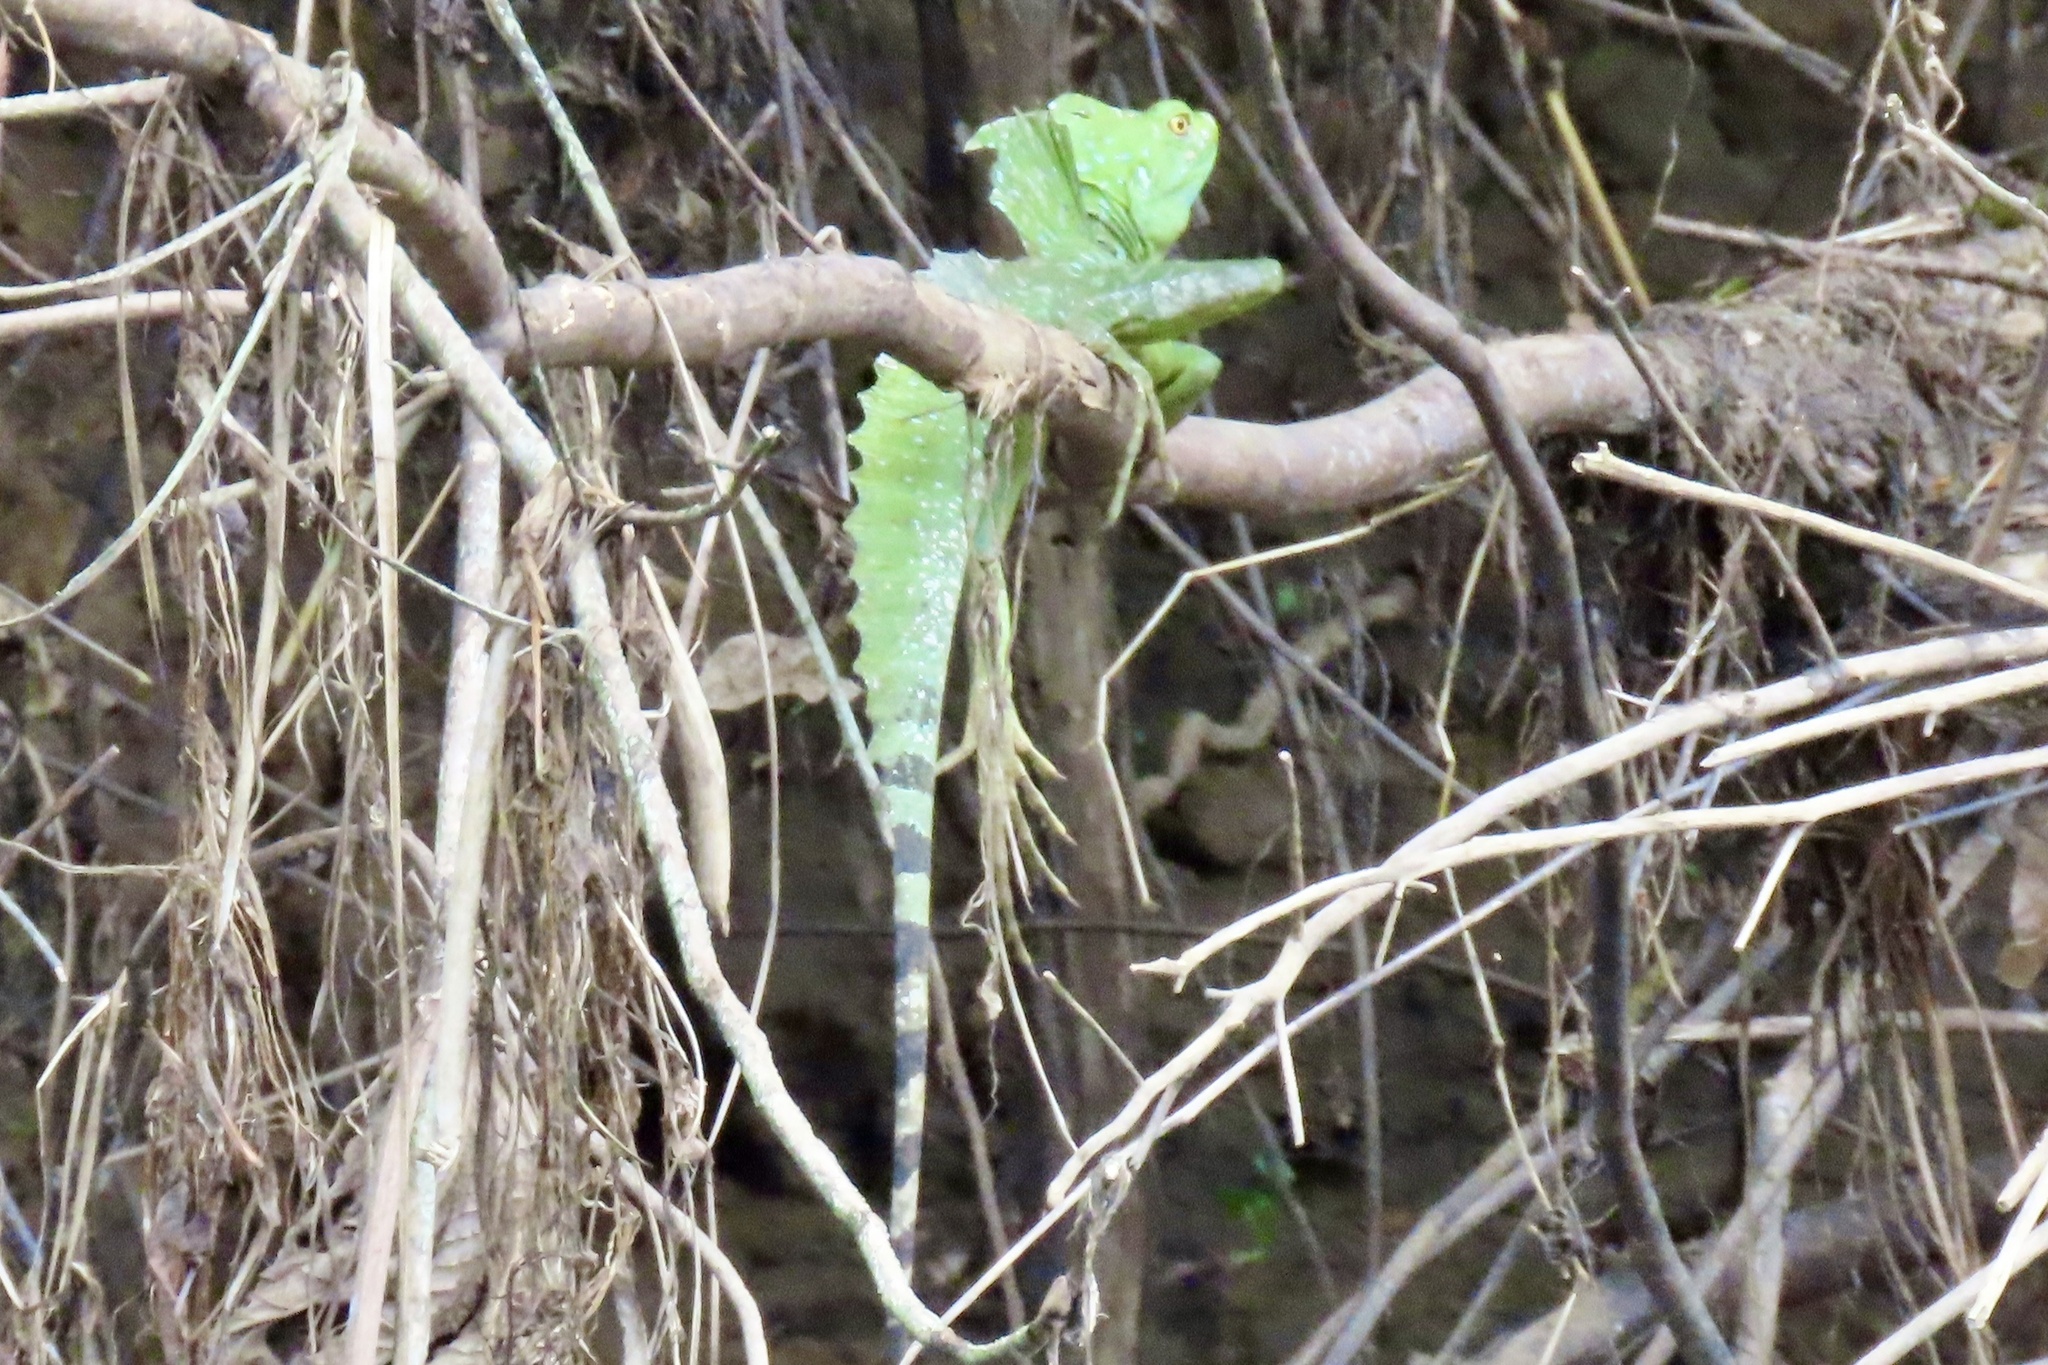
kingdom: Animalia
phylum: Chordata
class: Squamata
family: Corytophanidae
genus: Basiliscus
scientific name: Basiliscus plumifrons
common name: Green basilisk
